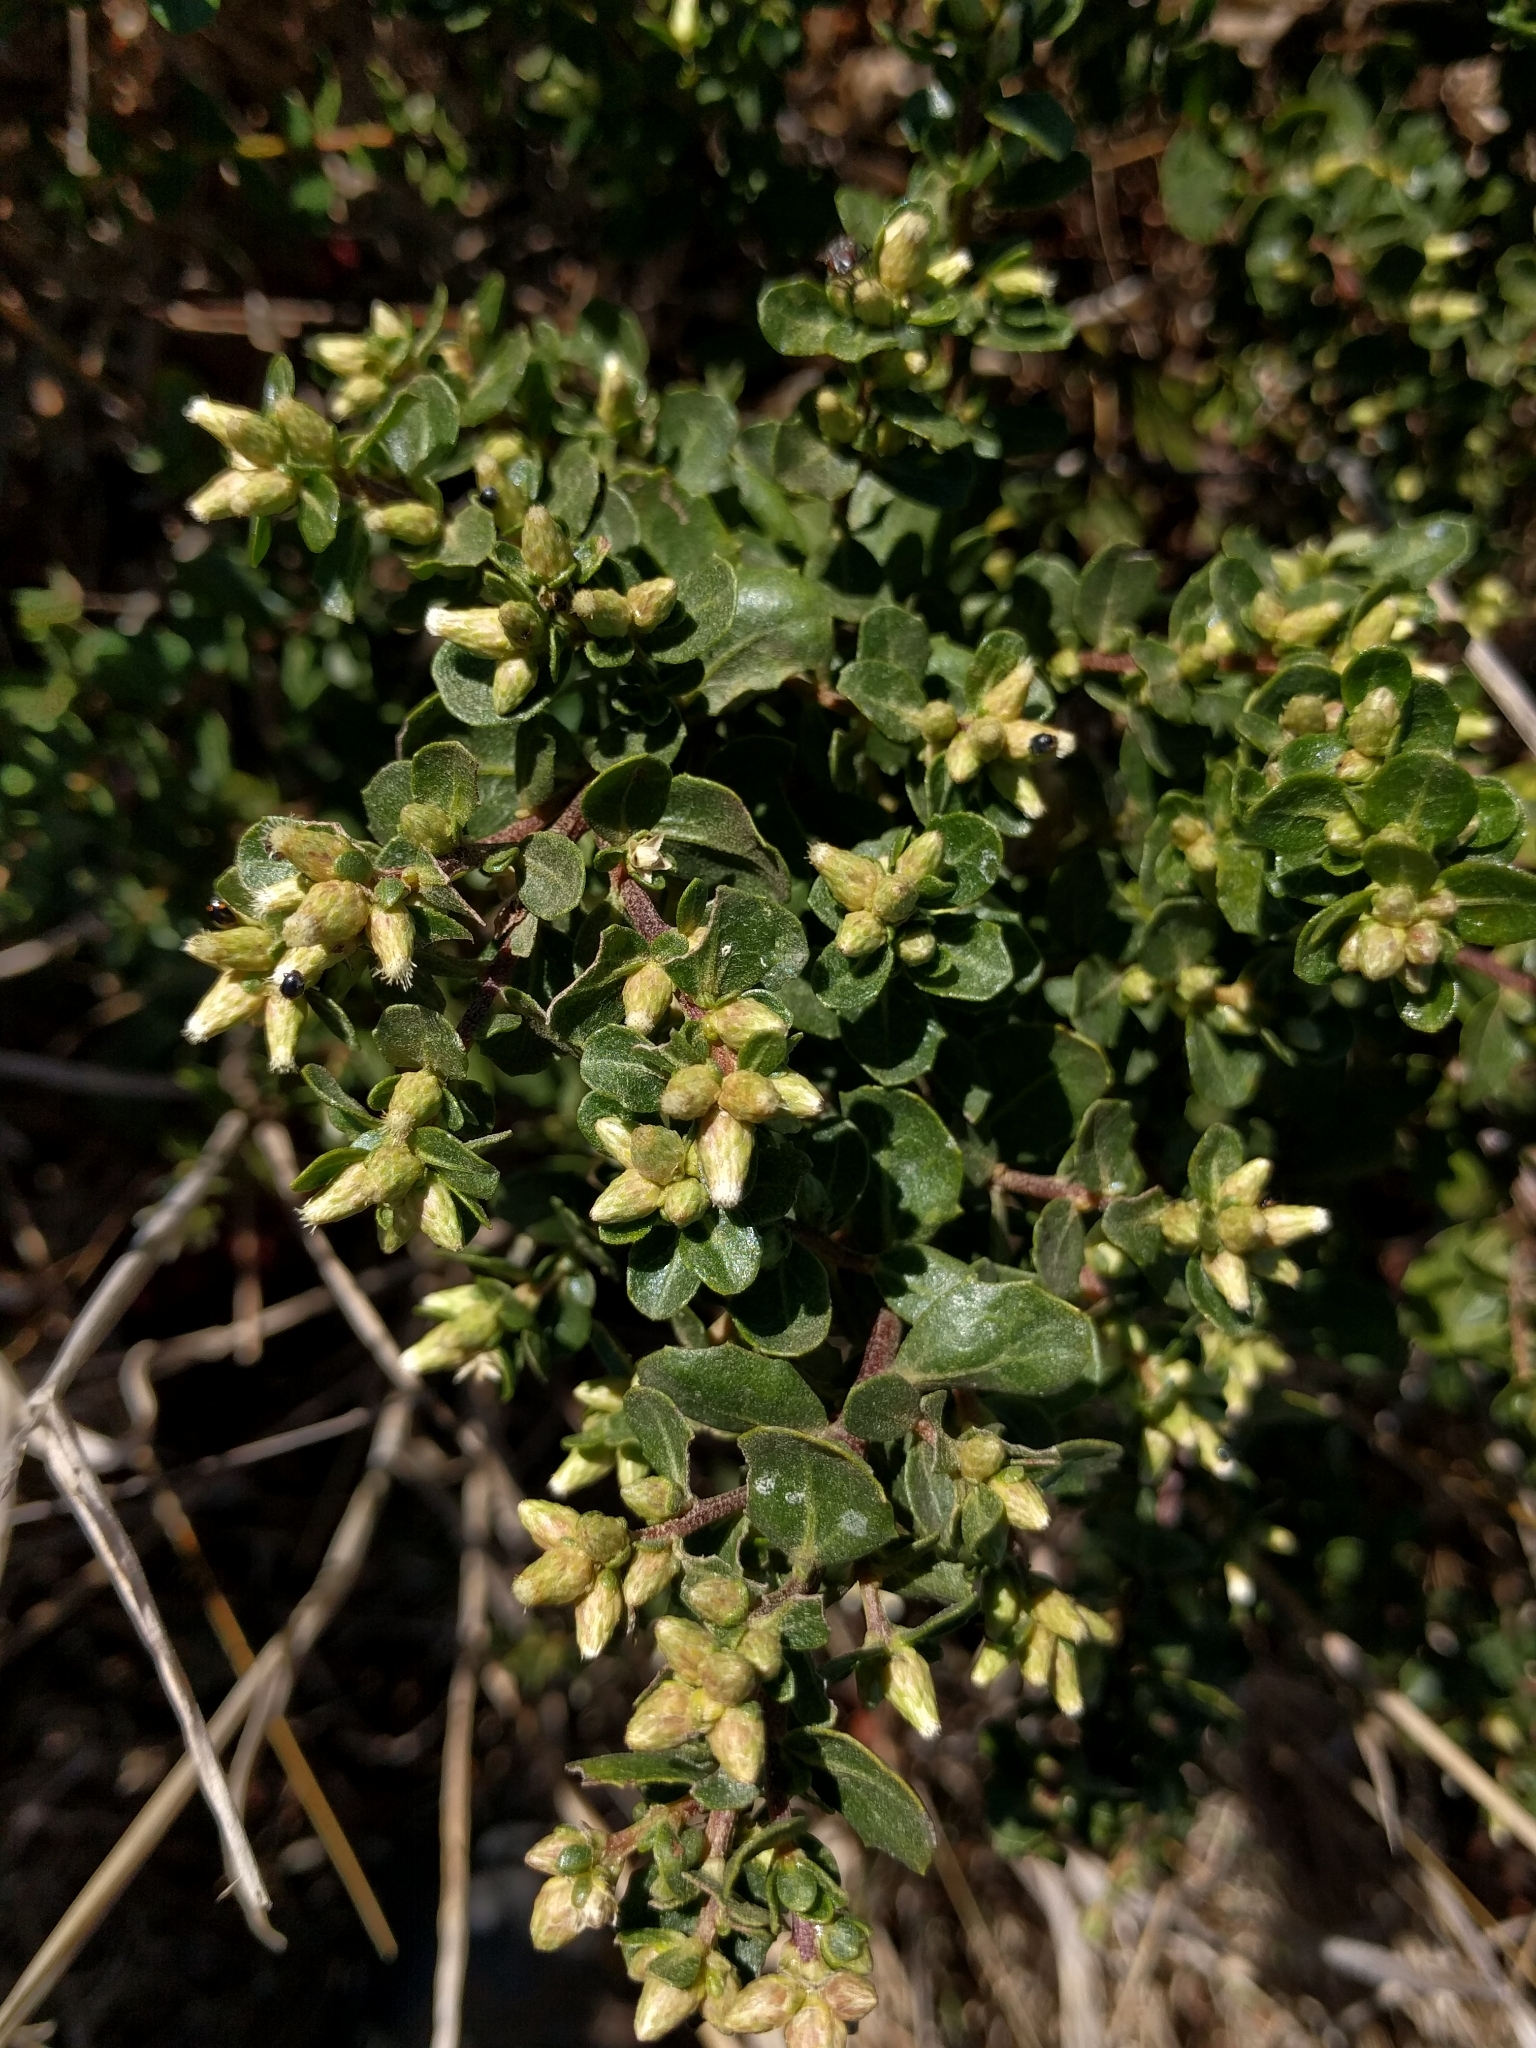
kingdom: Plantae
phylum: Tracheophyta
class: Magnoliopsida
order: Asterales
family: Asteraceae
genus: Baccharis
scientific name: Baccharis pilularis
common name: Coyotebrush
